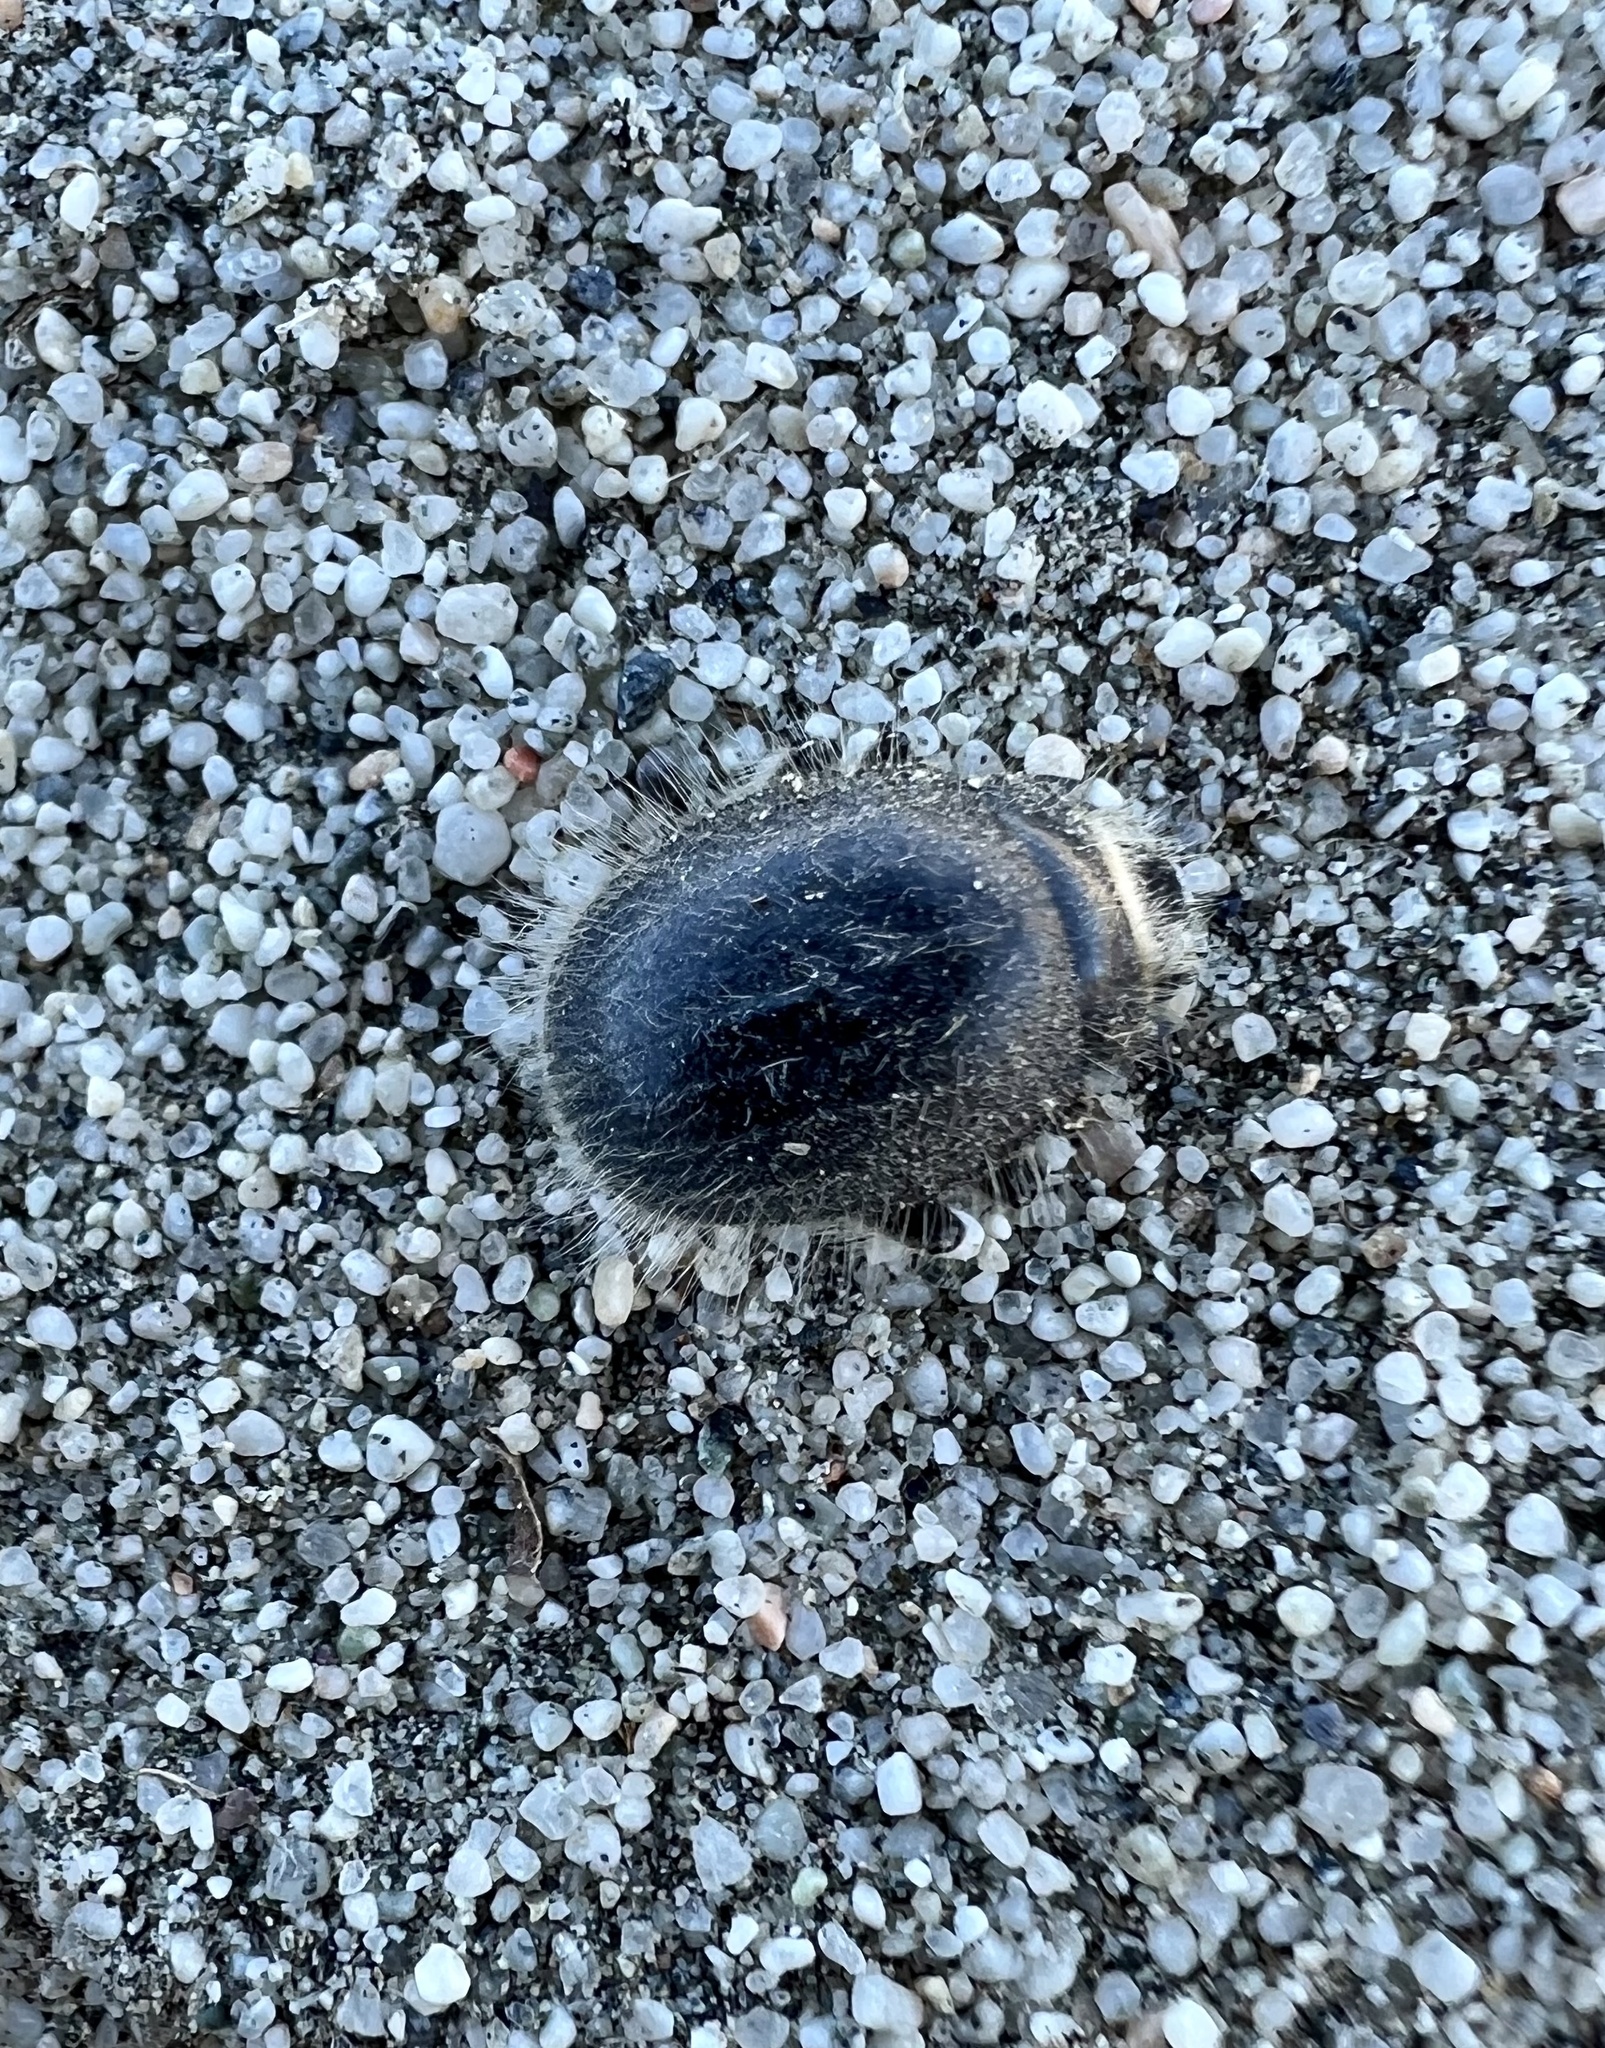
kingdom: Animalia
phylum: Arthropoda
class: Insecta
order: Coleoptera
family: Tenebrionidae
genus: Edrotes
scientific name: Edrotes ventricosus
